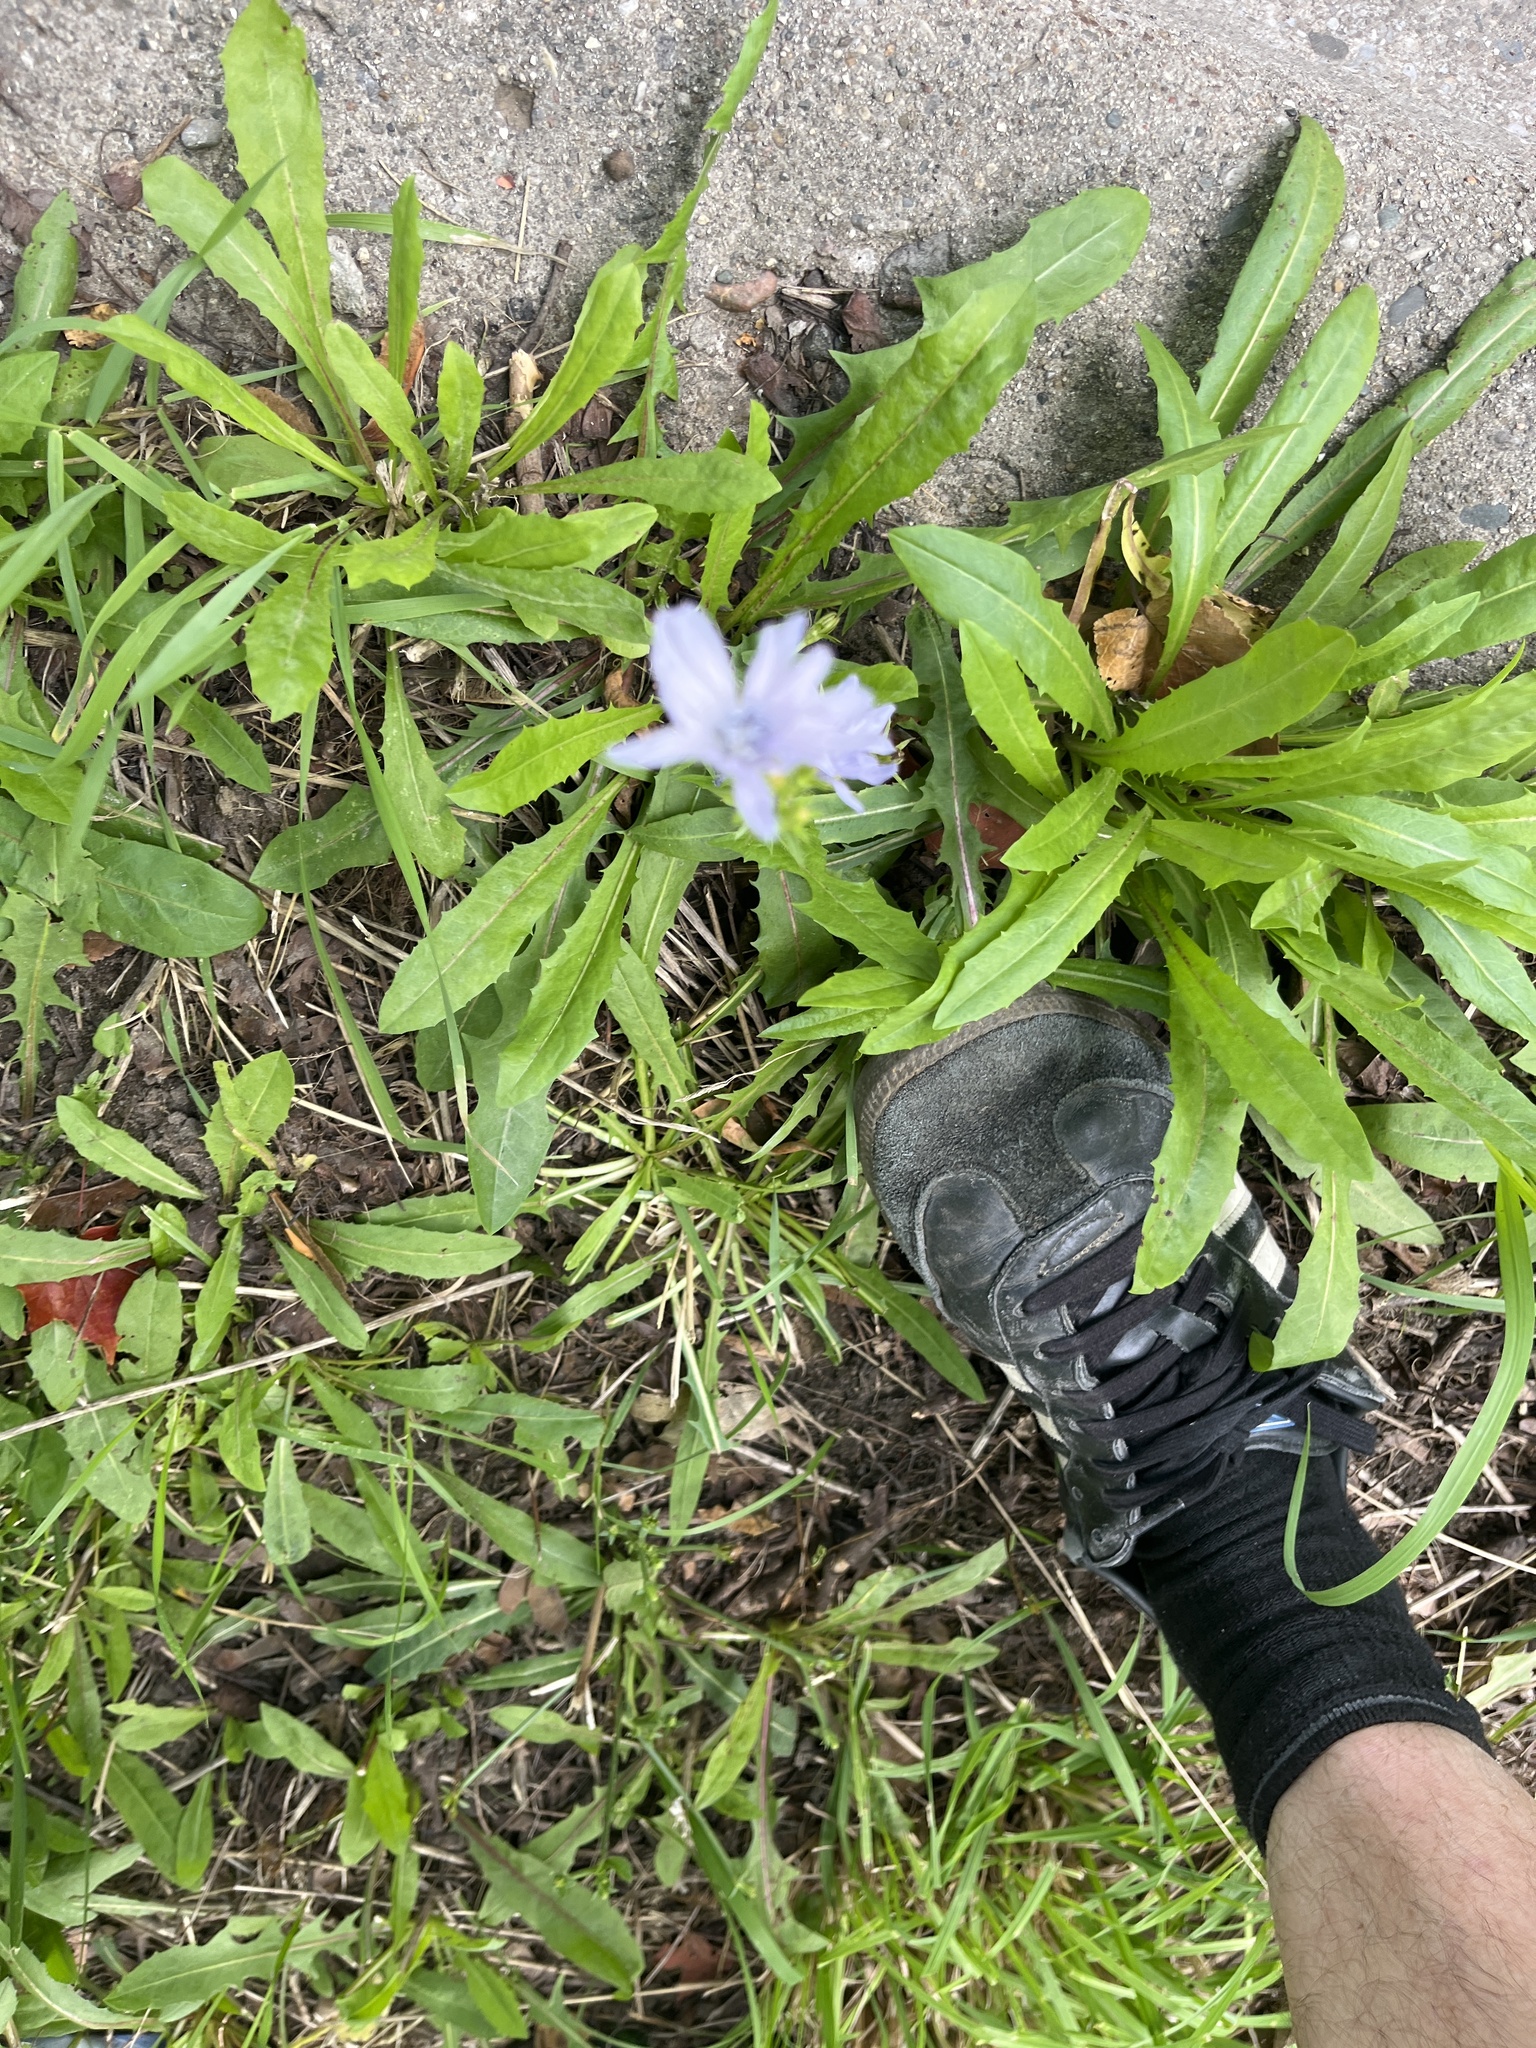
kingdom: Plantae
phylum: Tracheophyta
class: Magnoliopsida
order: Asterales
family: Asteraceae
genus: Cichorium
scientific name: Cichorium intybus
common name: Chicory
